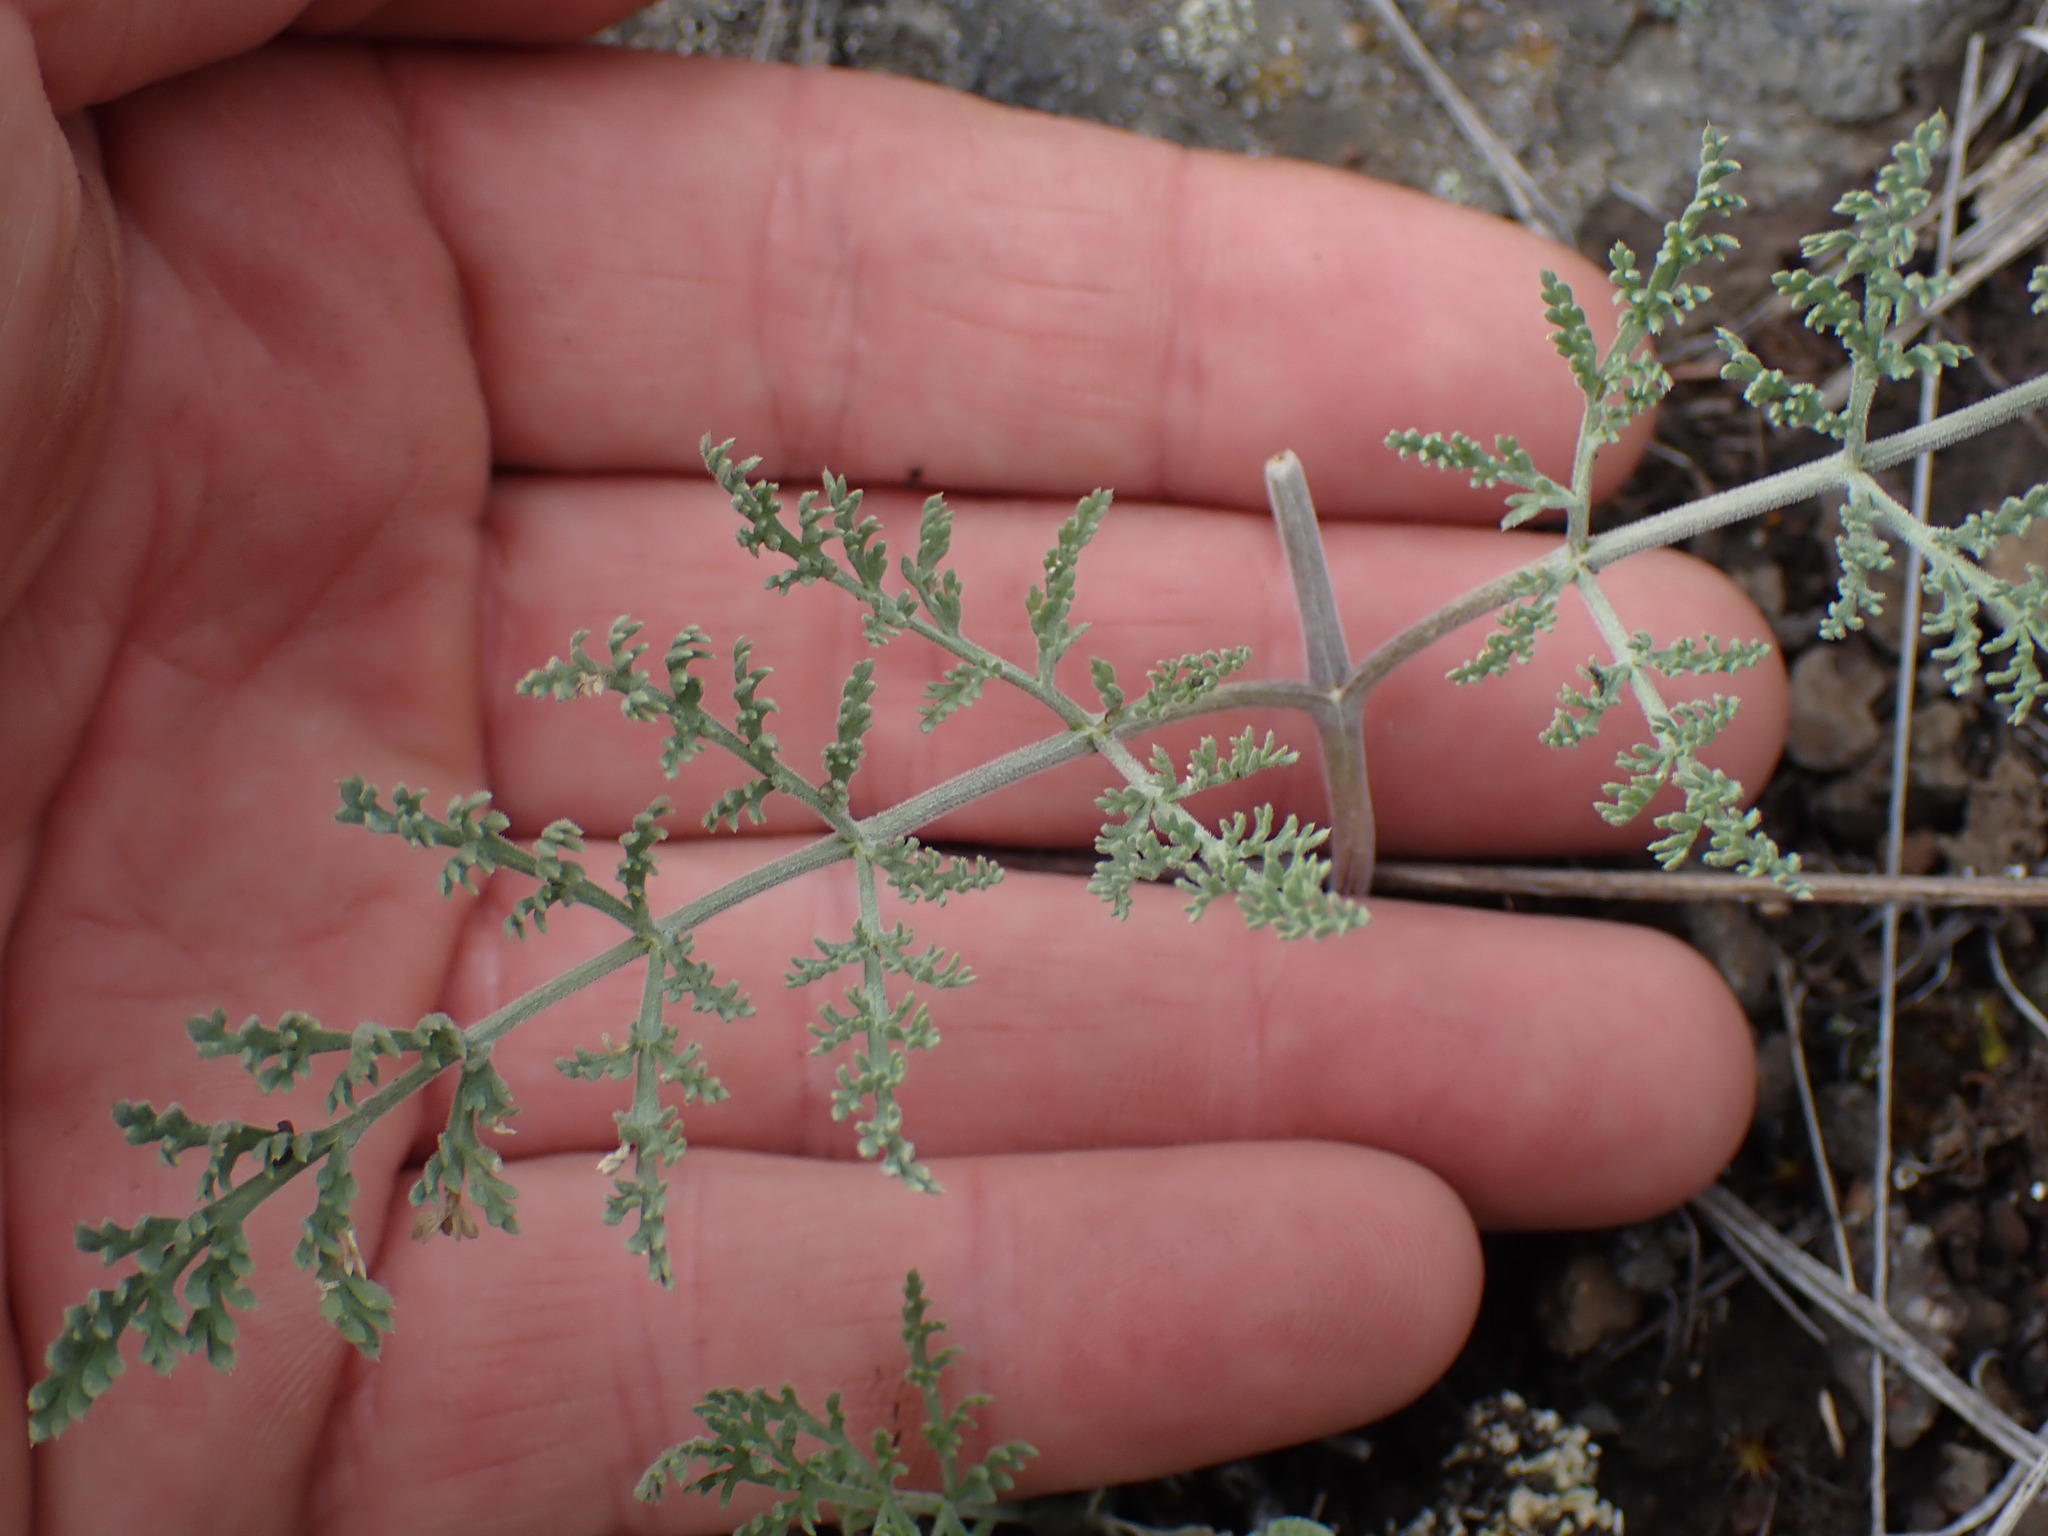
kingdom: Plantae
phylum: Tracheophyta
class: Magnoliopsida
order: Apiales
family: Apiaceae
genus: Lomatium
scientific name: Lomatium macrocarpum
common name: Big-seed biscuitroot
